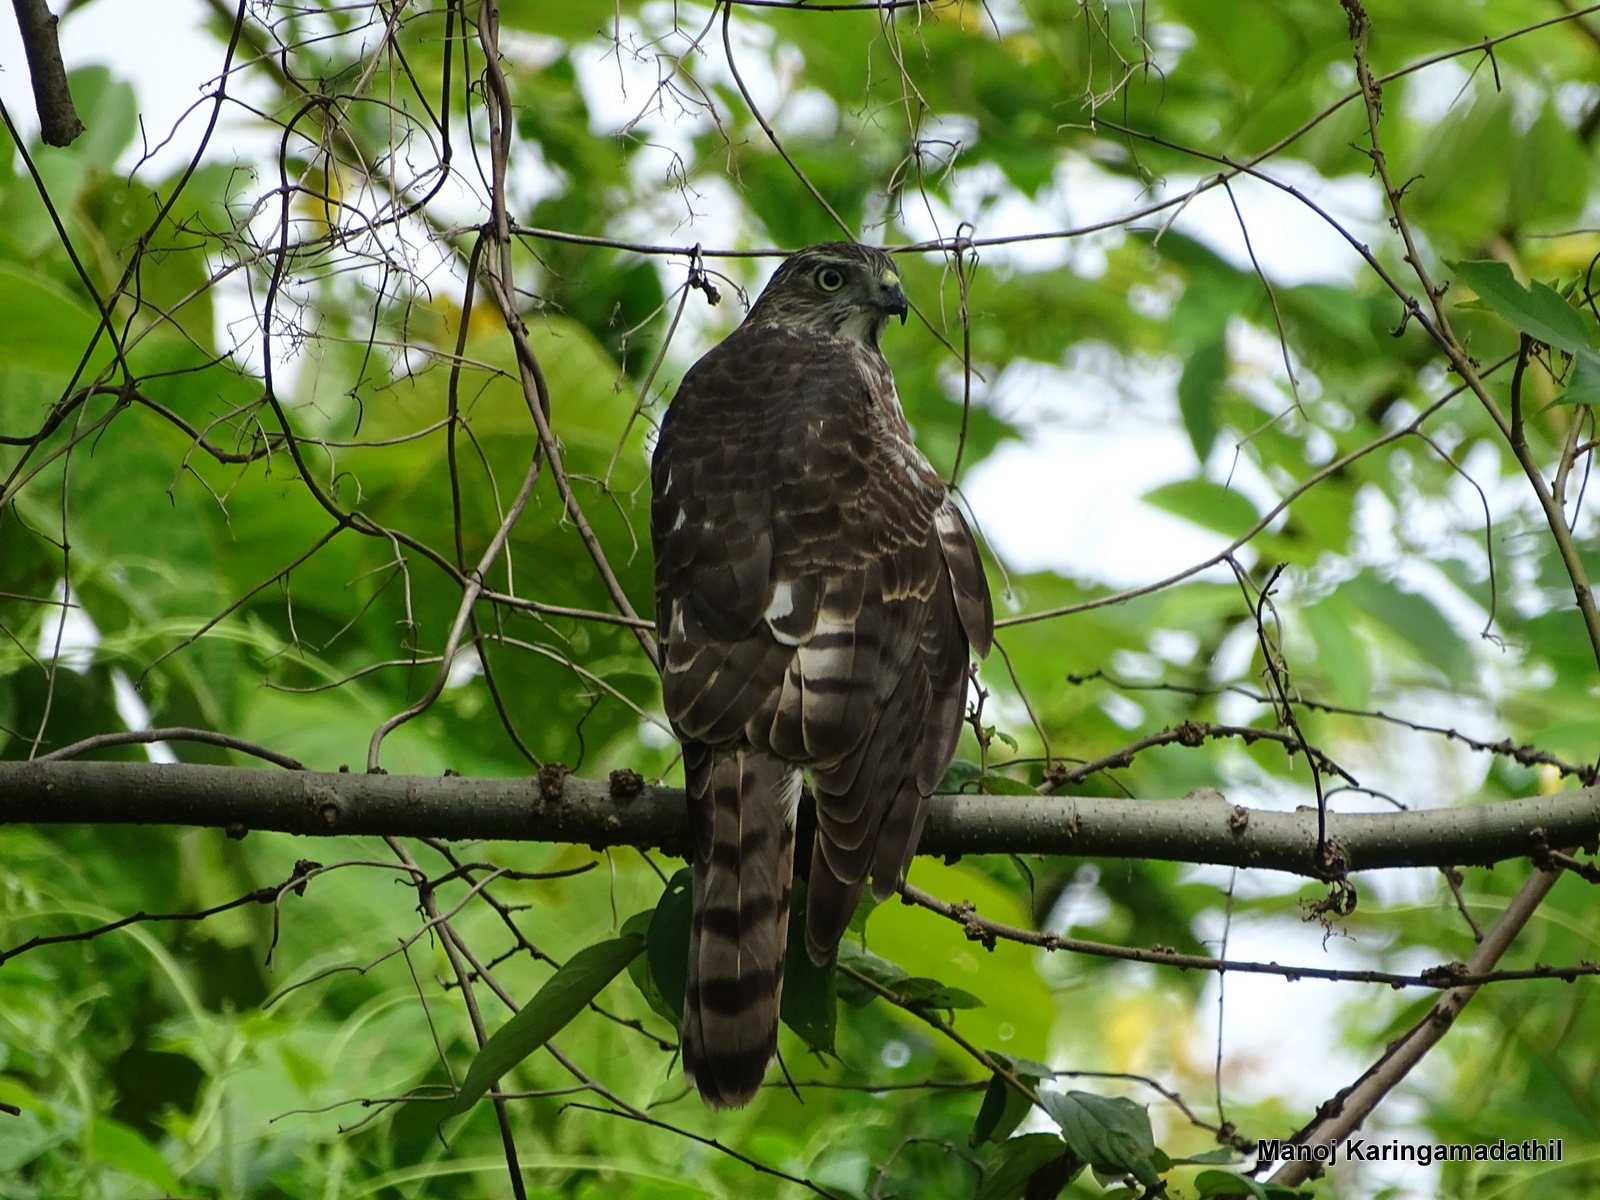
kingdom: Animalia
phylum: Chordata
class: Aves
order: Accipitriformes
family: Accipitridae
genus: Accipiter
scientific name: Accipiter badius
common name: Shikra
